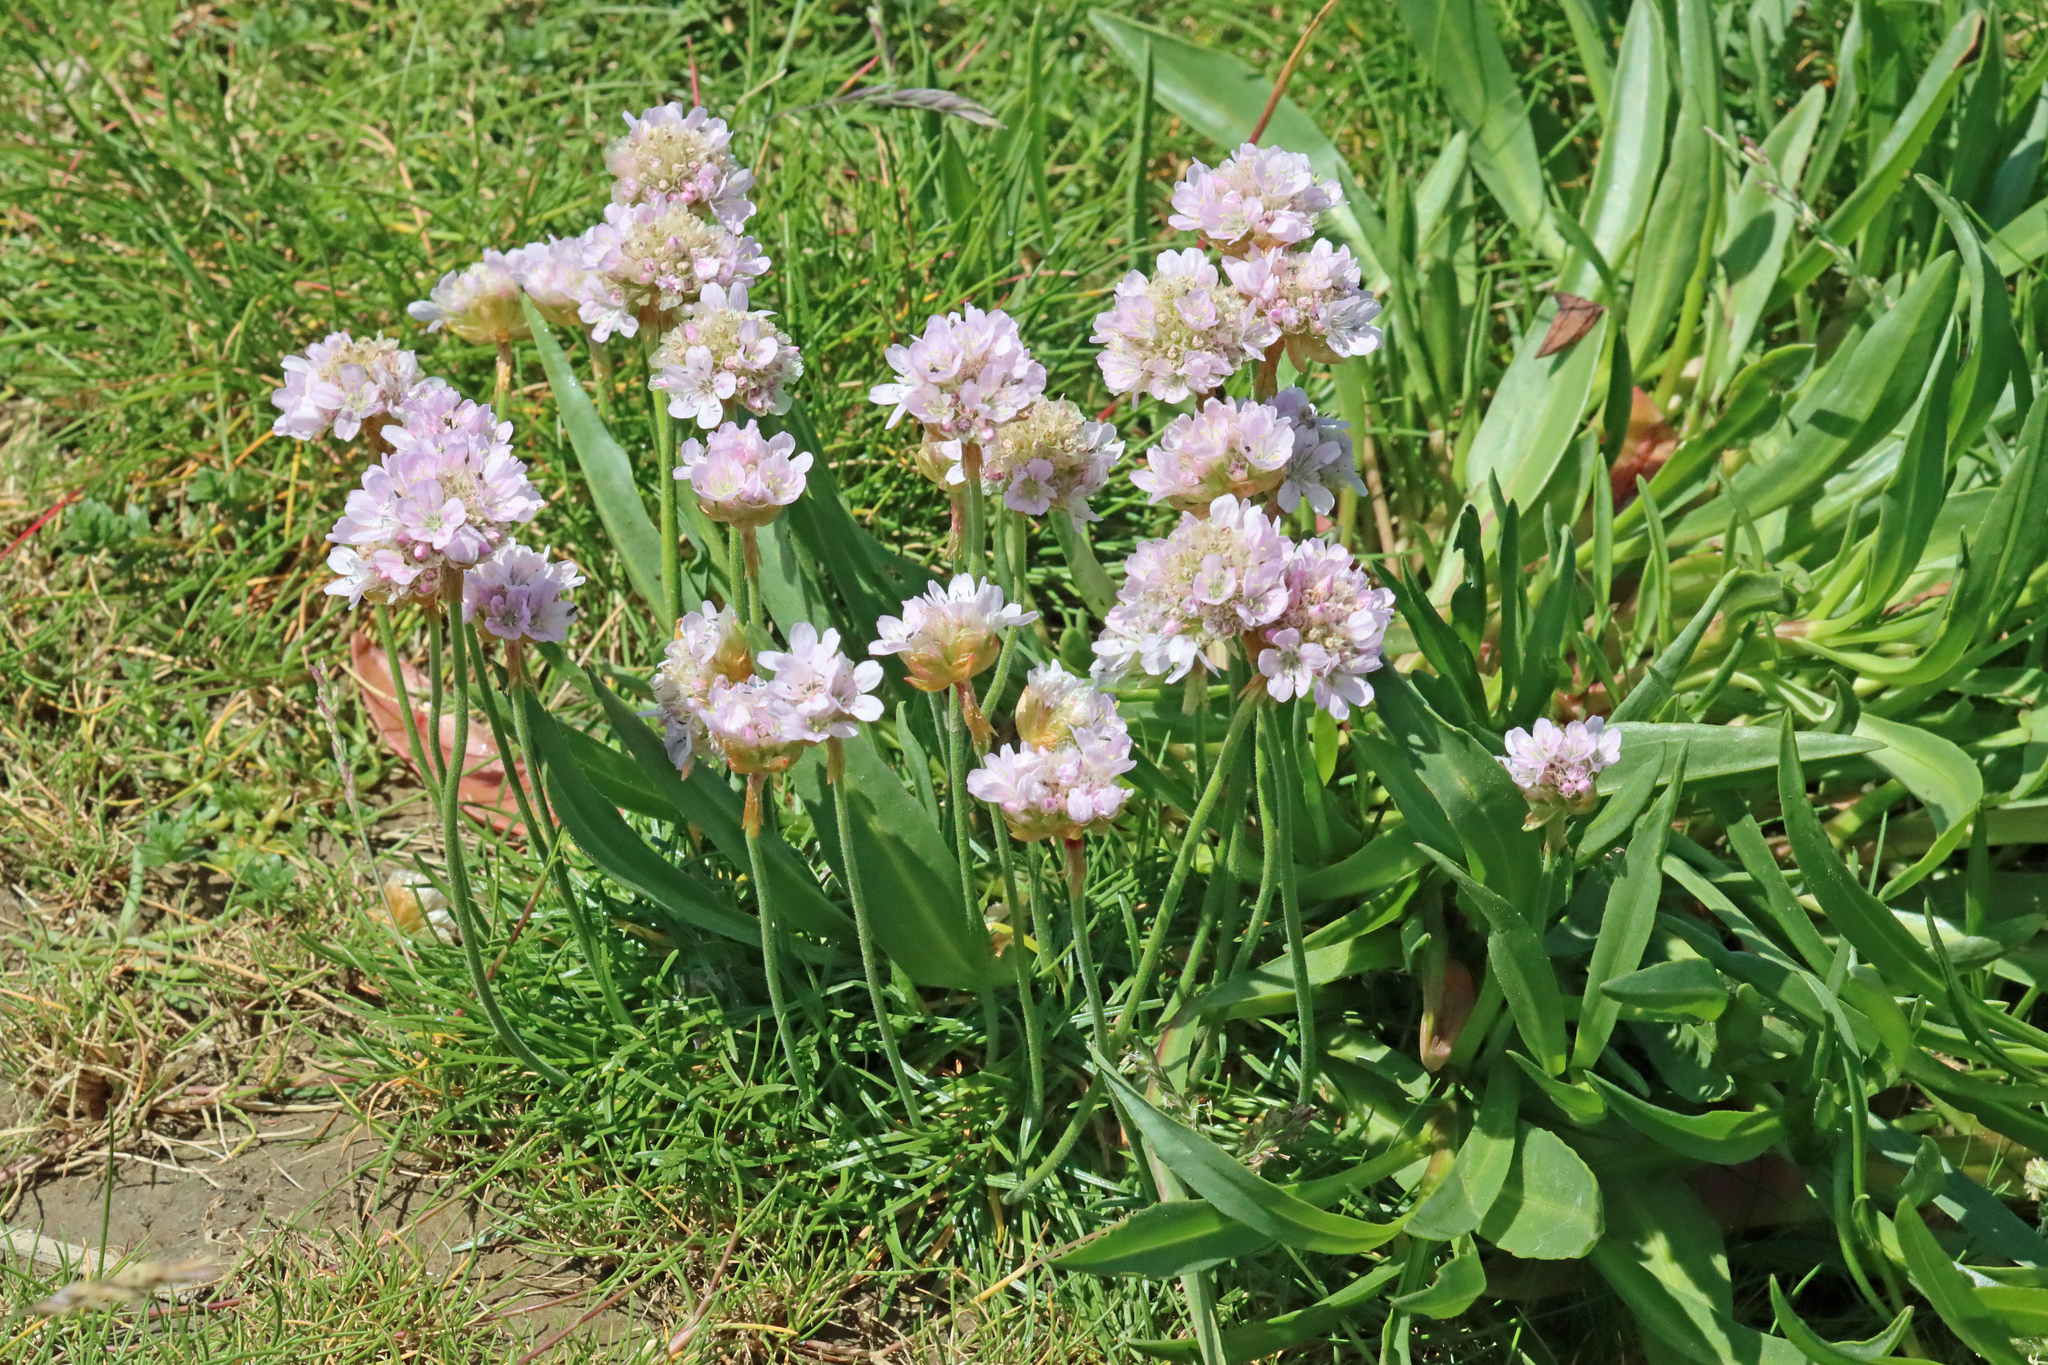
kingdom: Plantae
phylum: Tracheophyta
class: Magnoliopsida
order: Caryophyllales
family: Plumbaginaceae
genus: Armeria
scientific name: Armeria maritima
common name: Thrift
